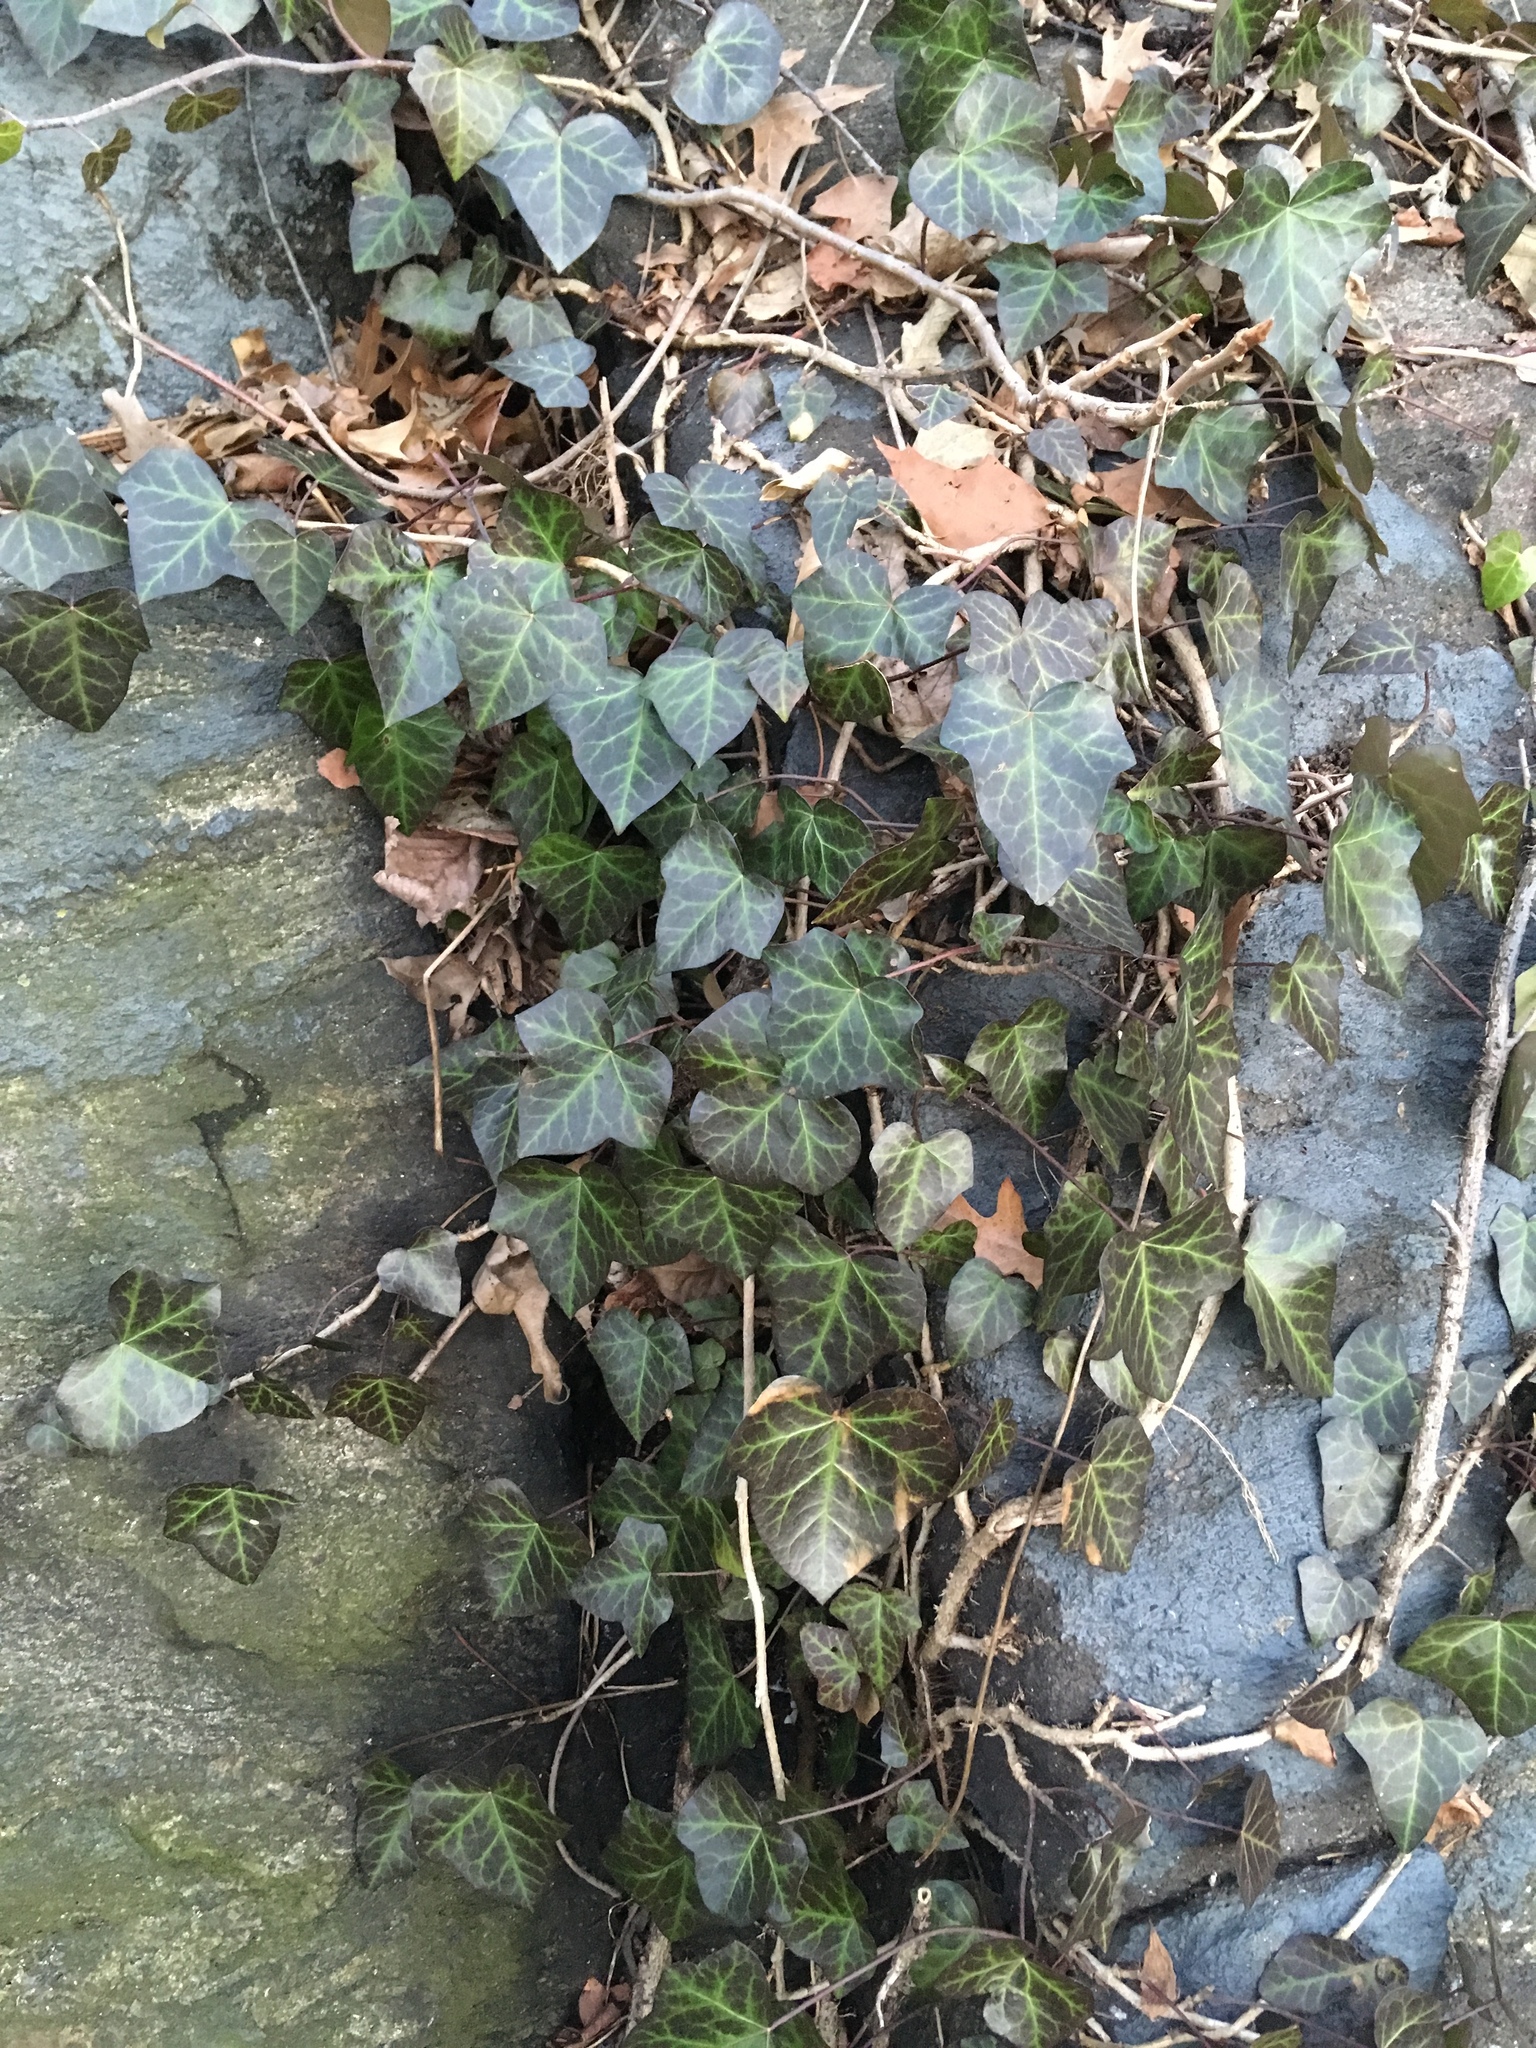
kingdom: Plantae
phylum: Tracheophyta
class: Magnoliopsida
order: Apiales
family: Araliaceae
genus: Hedera
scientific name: Hedera helix
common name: Ivy
